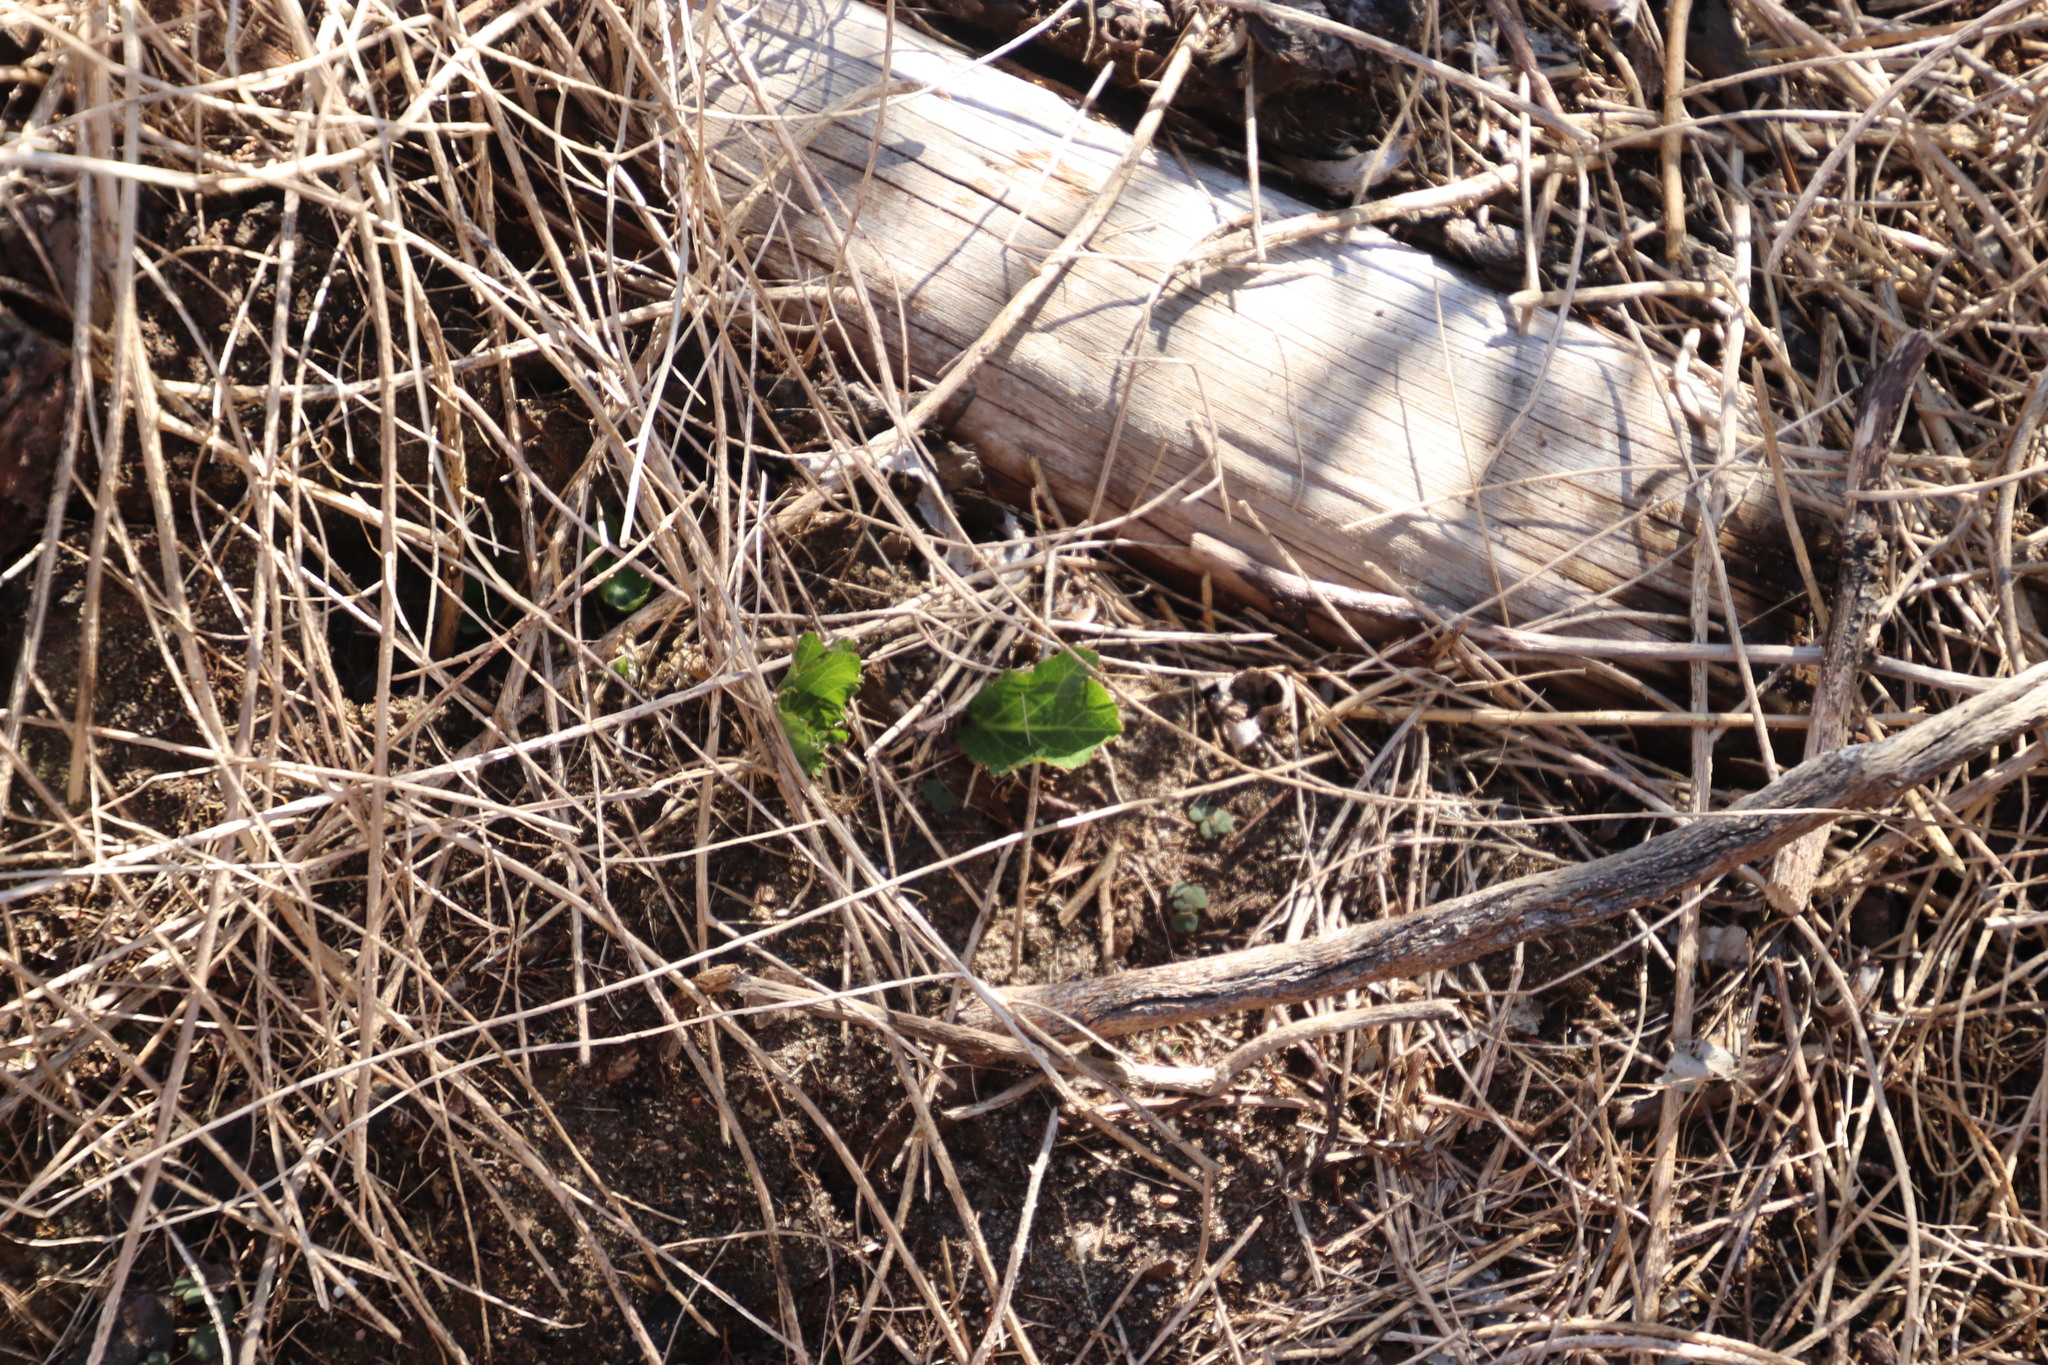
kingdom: Plantae
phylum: Tracheophyta
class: Magnoliopsida
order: Apiales
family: Apiaceae
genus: Lichtensteinia
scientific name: Lichtensteinia lacera
